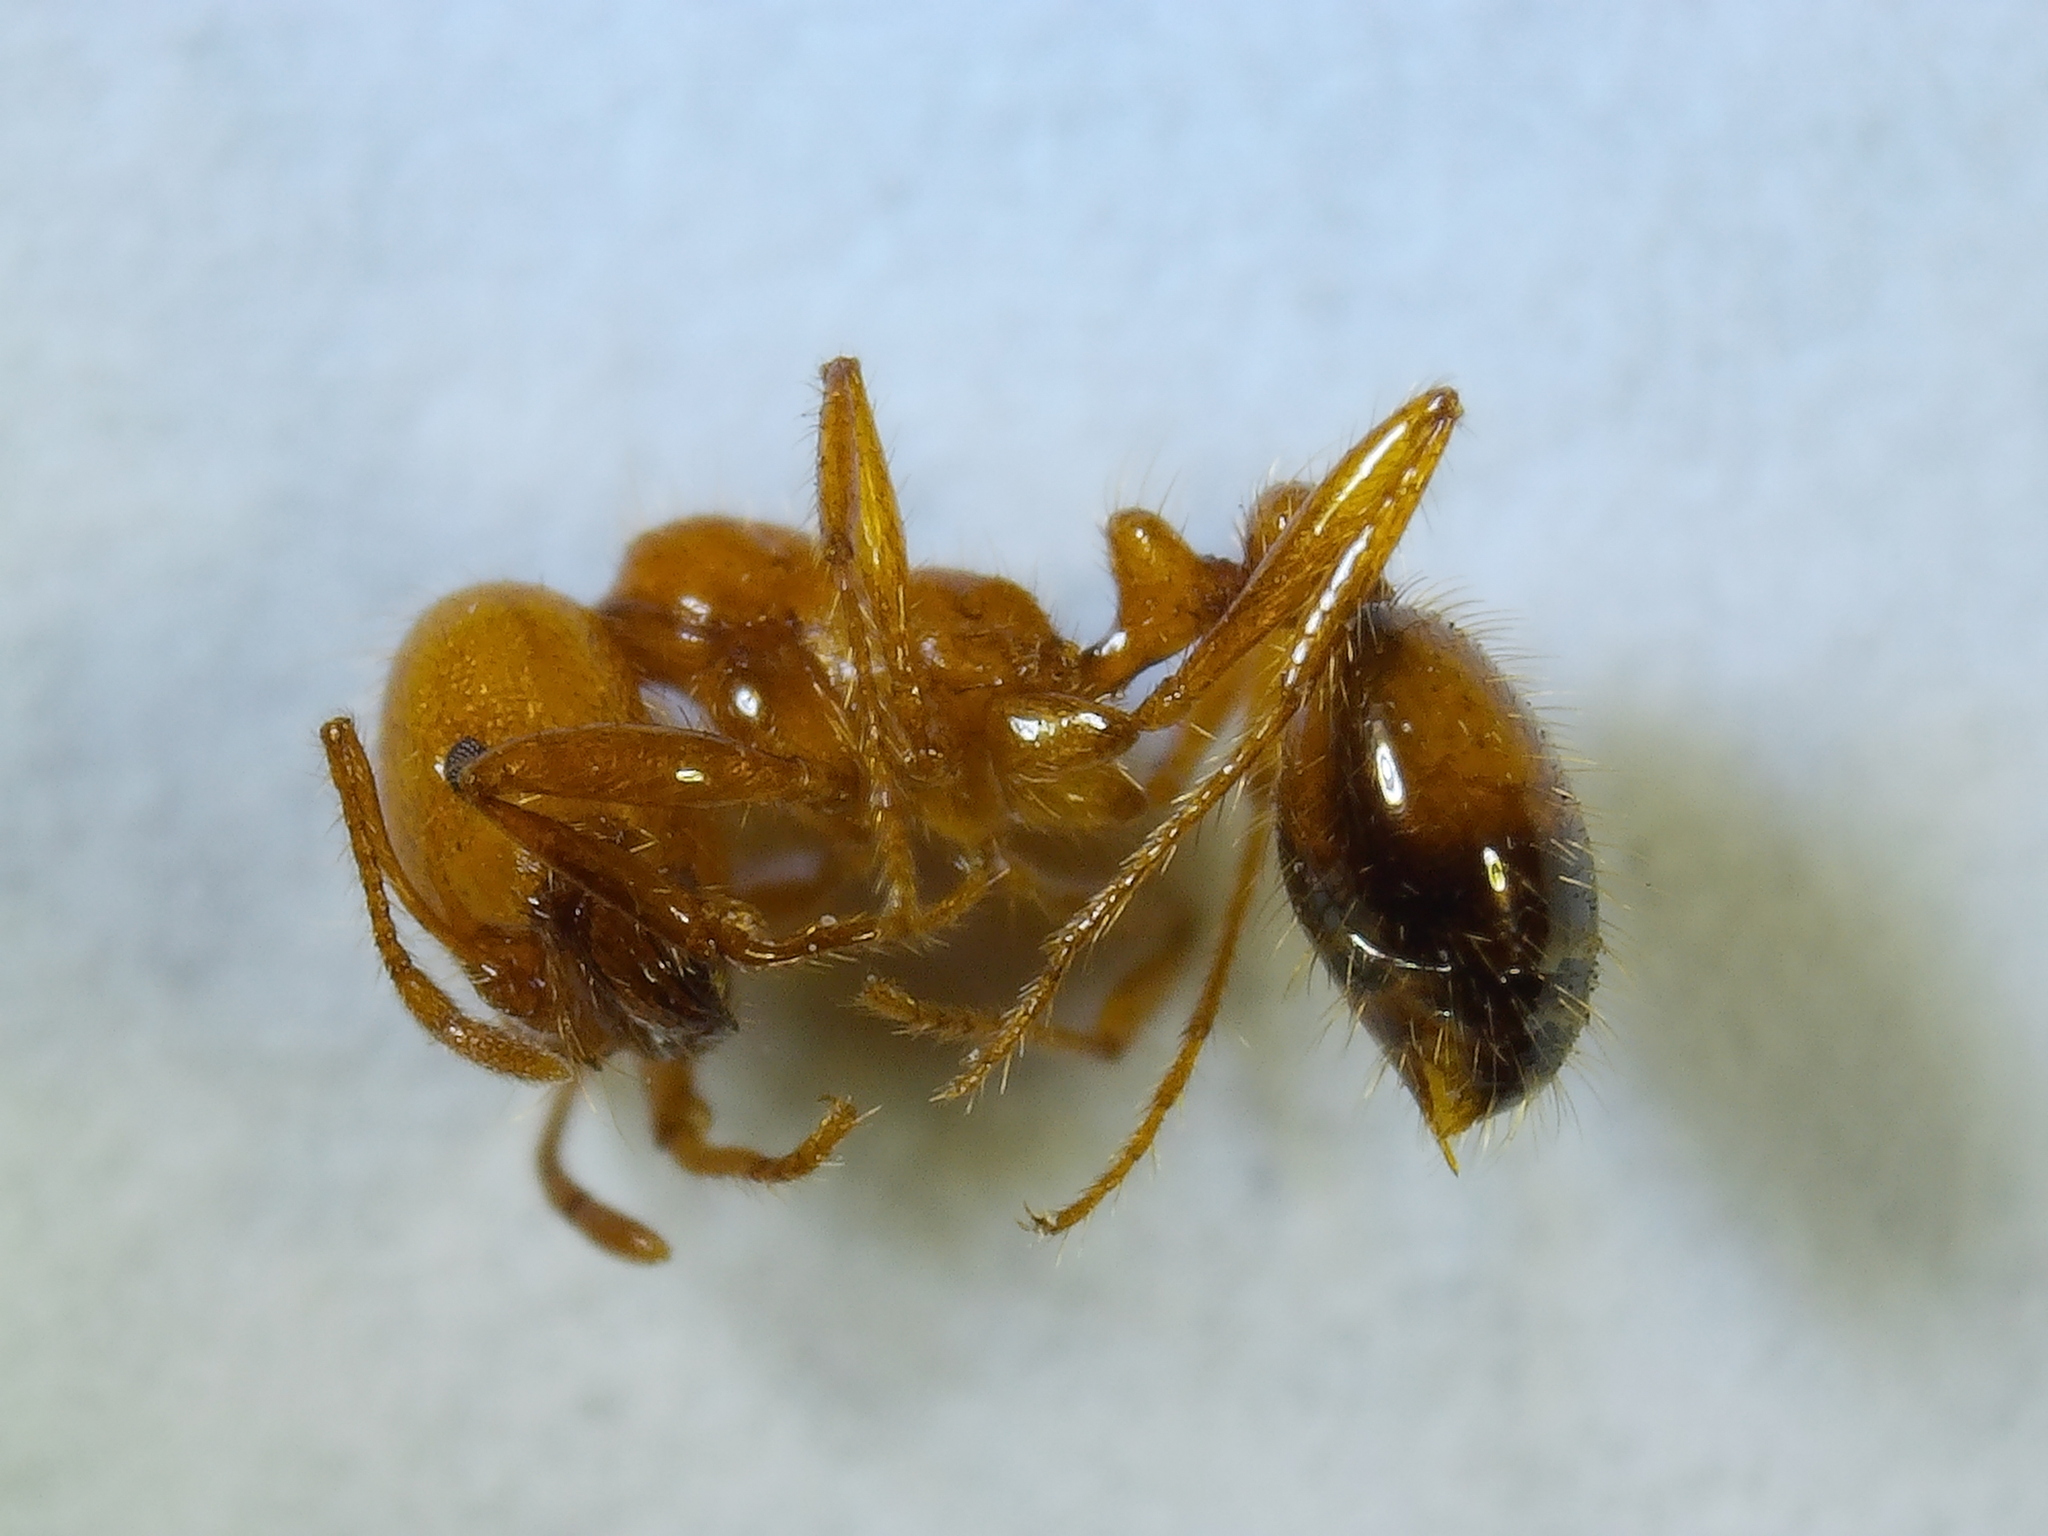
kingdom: Animalia
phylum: Arthropoda
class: Insecta
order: Hymenoptera
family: Formicidae
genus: Solenopsis
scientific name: Solenopsis xyloni
